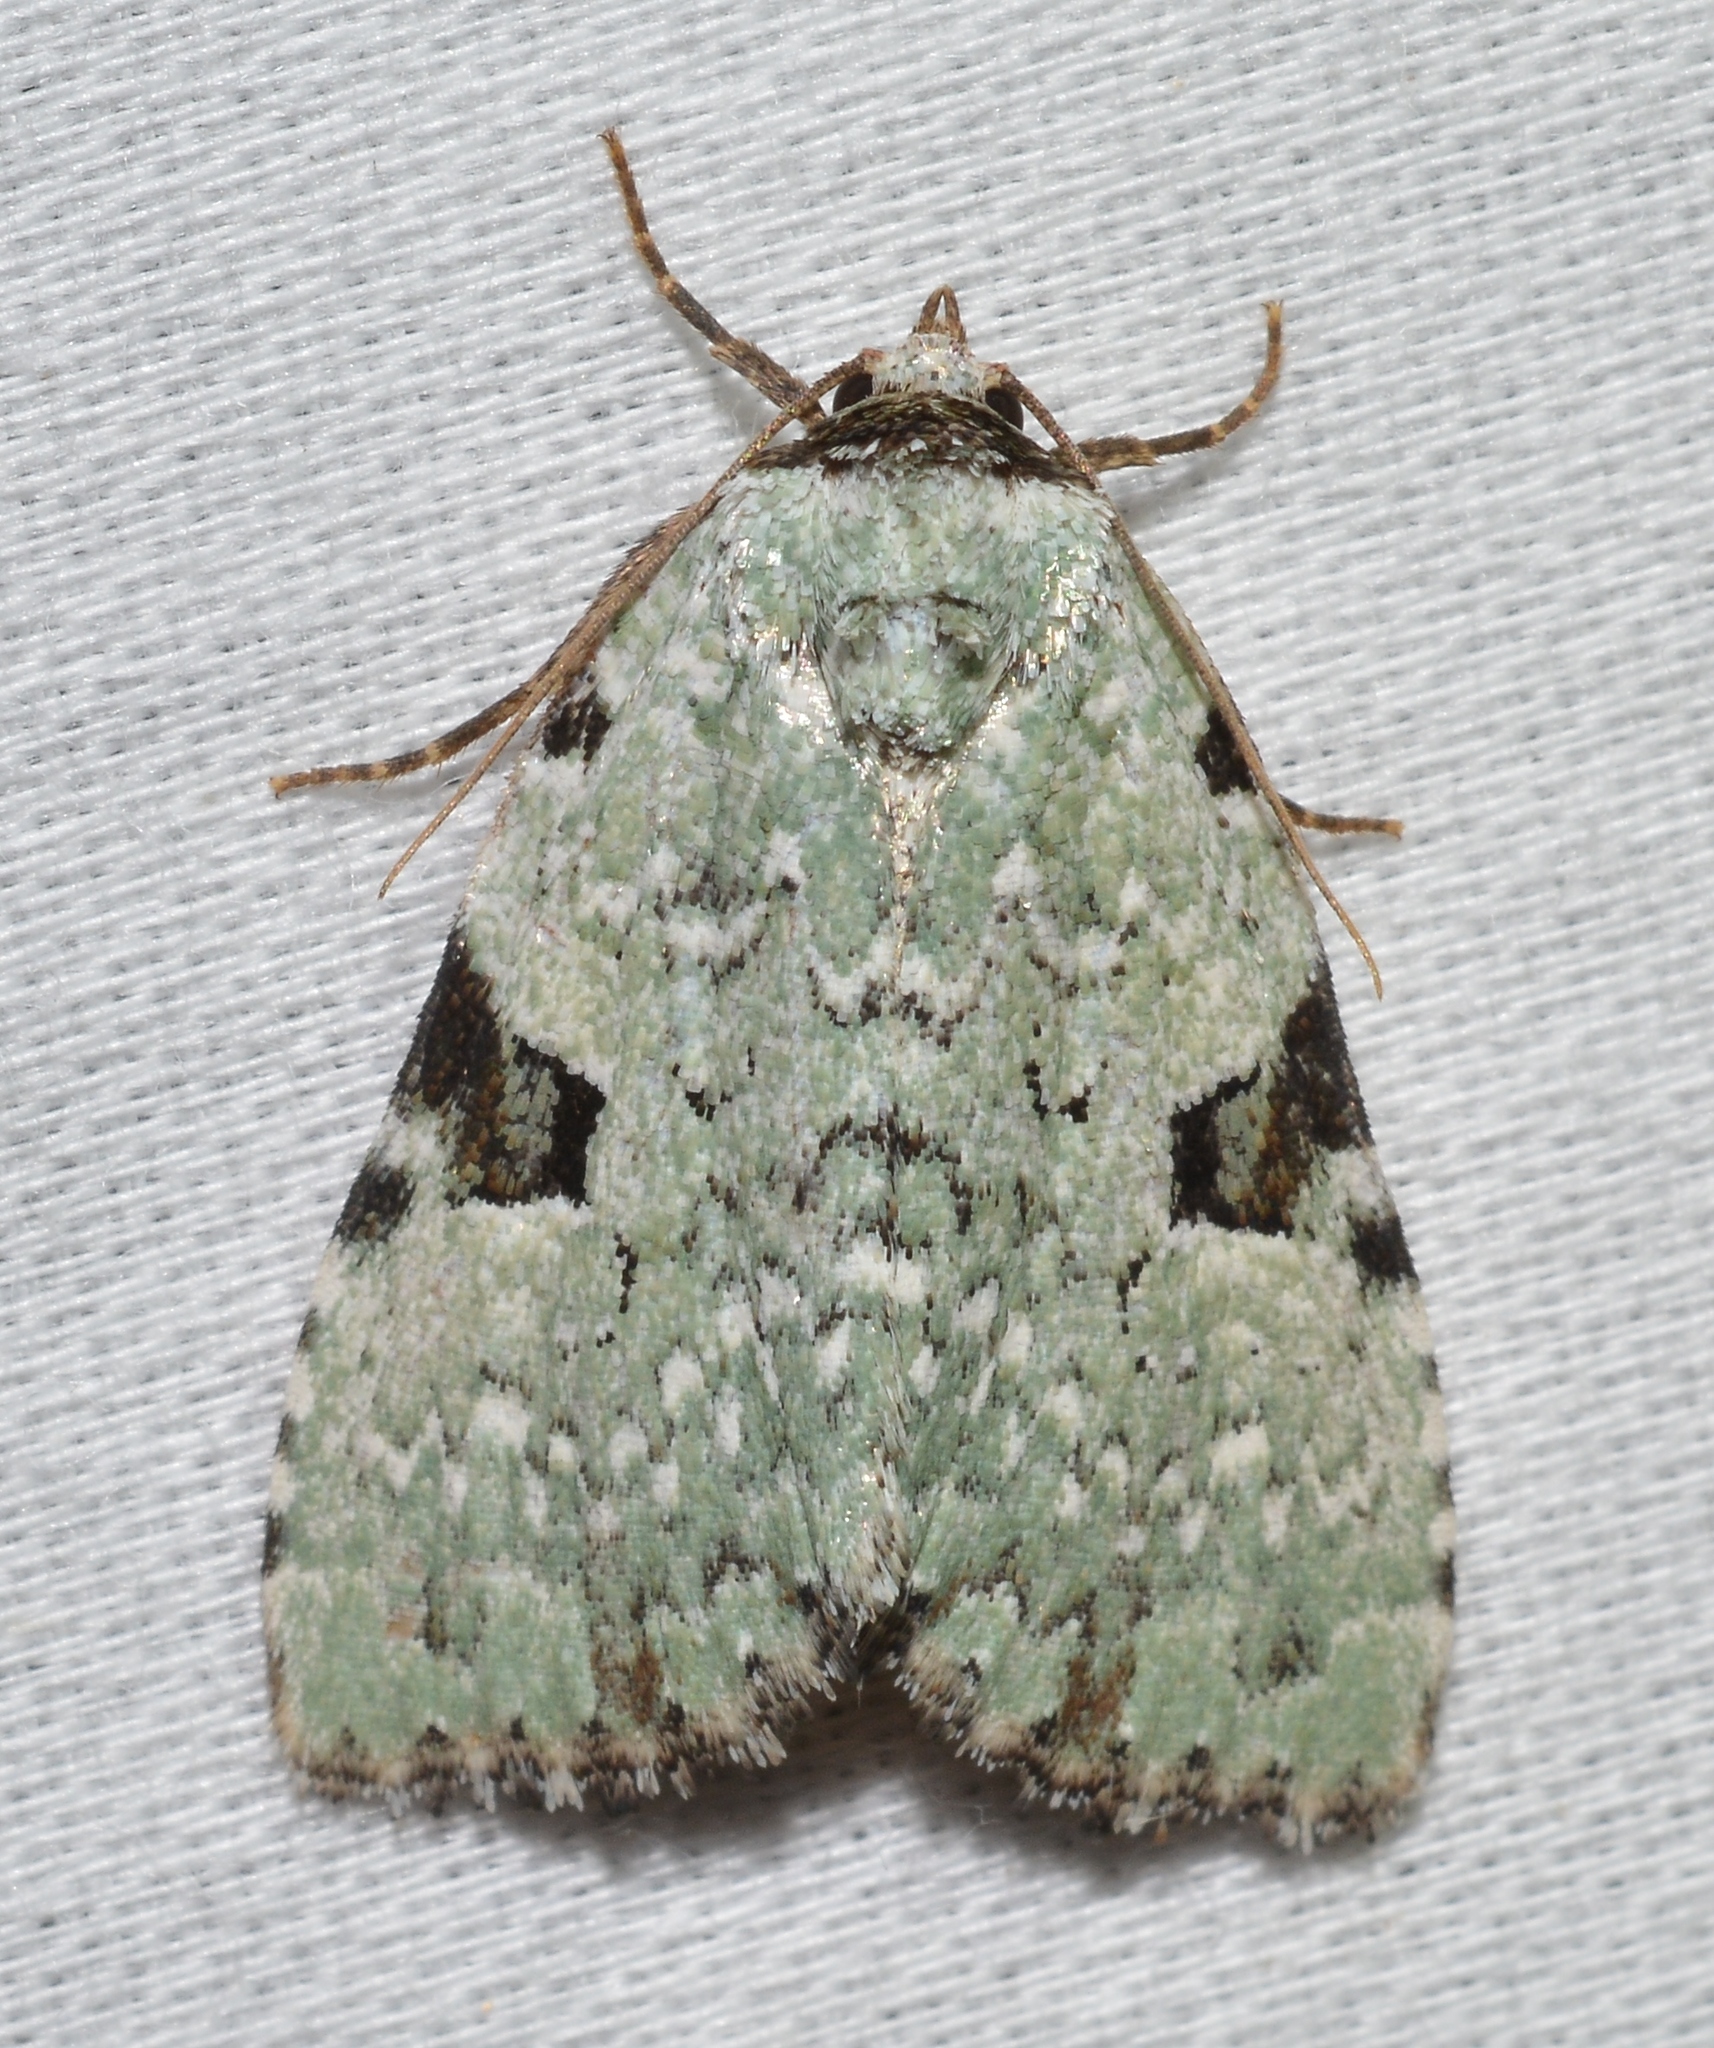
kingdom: Animalia
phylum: Arthropoda
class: Insecta
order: Lepidoptera
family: Noctuidae
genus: Leuconycta
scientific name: Leuconycta diphteroides
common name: Green leuconycta moth
